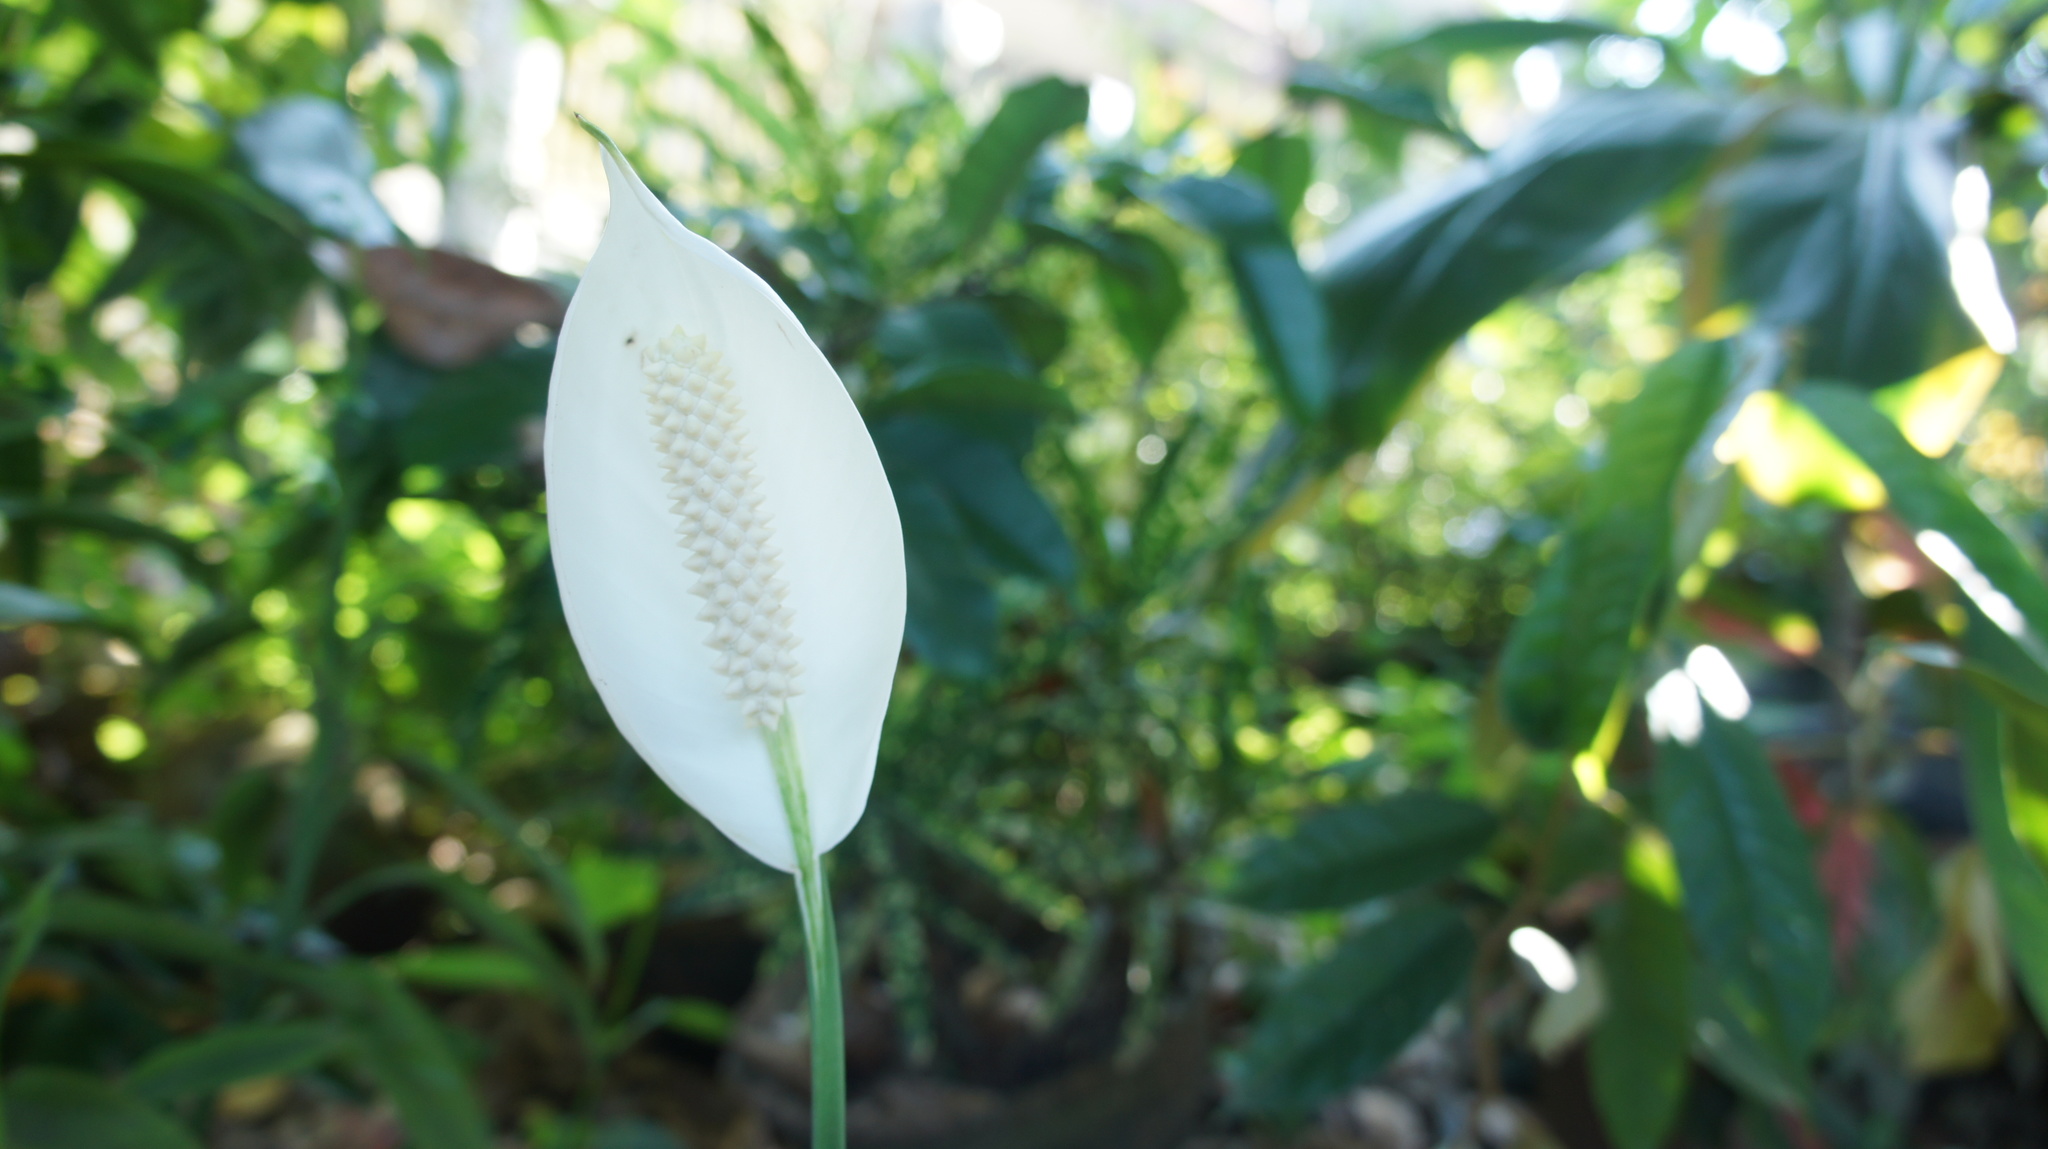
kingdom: Plantae
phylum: Tracheophyta
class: Liliopsida
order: Alismatales
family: Araceae
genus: Spathiphyllum
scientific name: Spathiphyllum wallisii
